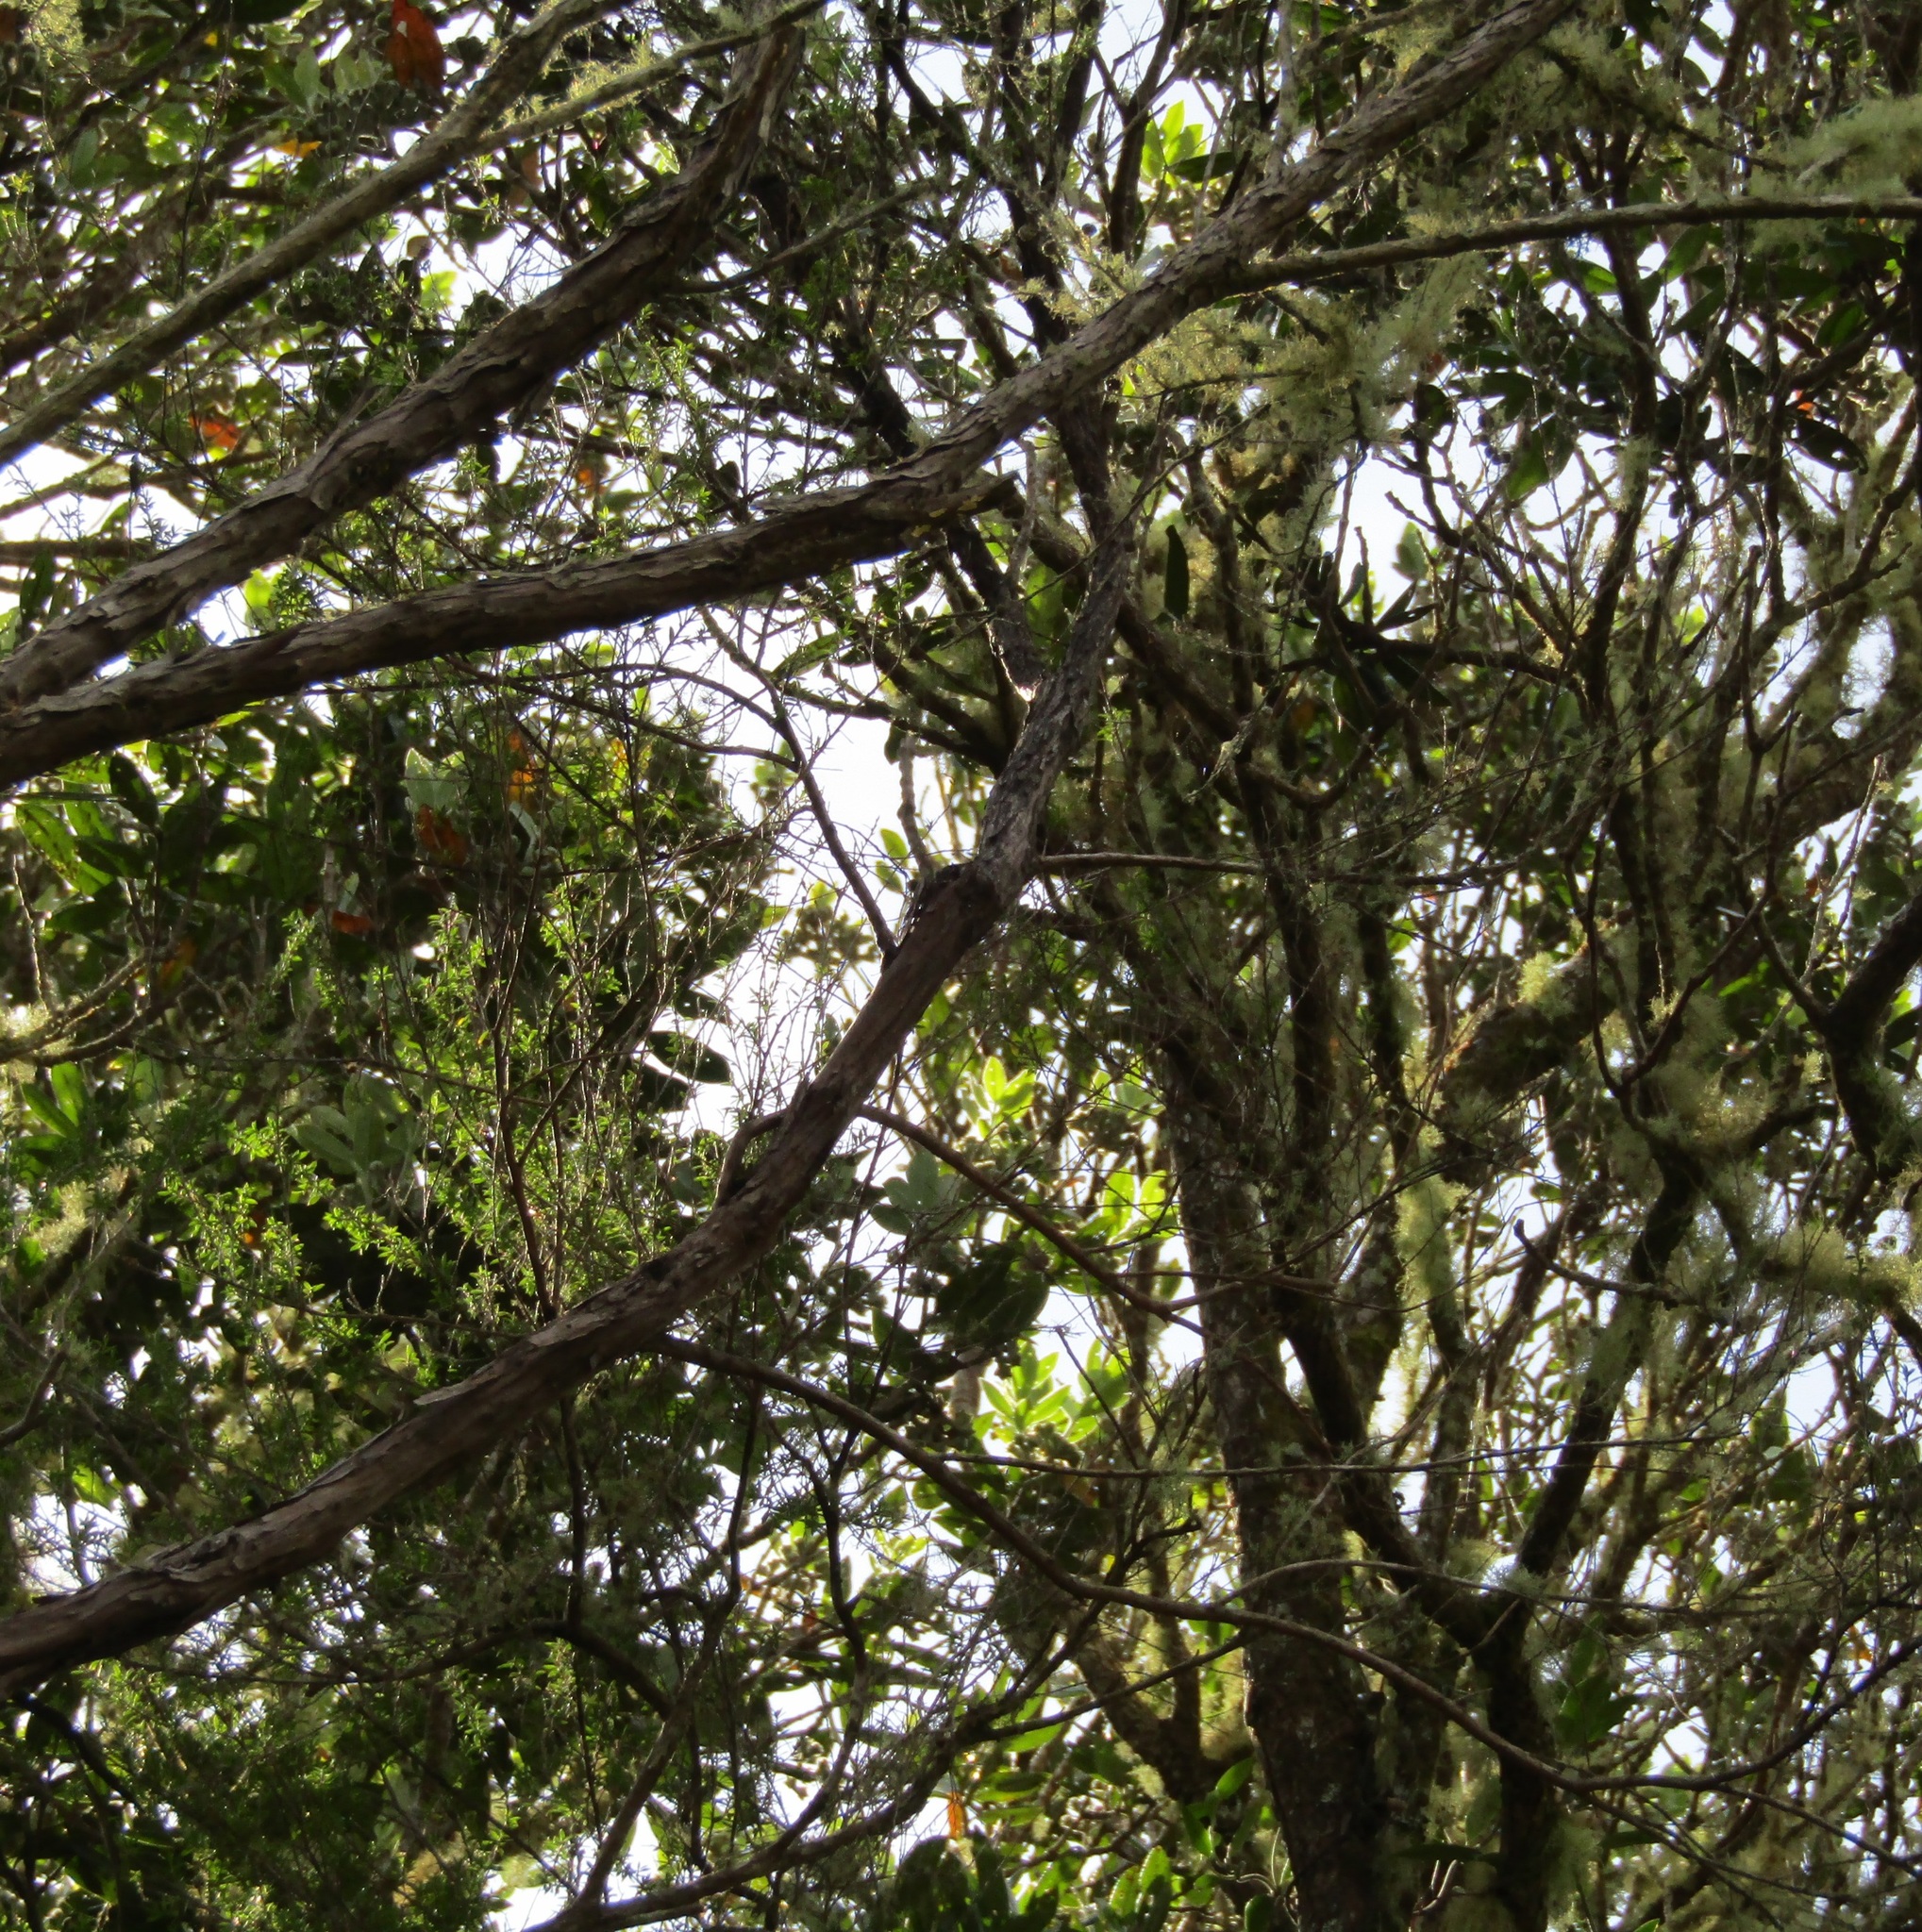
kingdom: Animalia
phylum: Chordata
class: Aves
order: Passeriformes
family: Meliphagidae
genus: Anthornis
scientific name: Anthornis melanura
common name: New zealand bellbird
